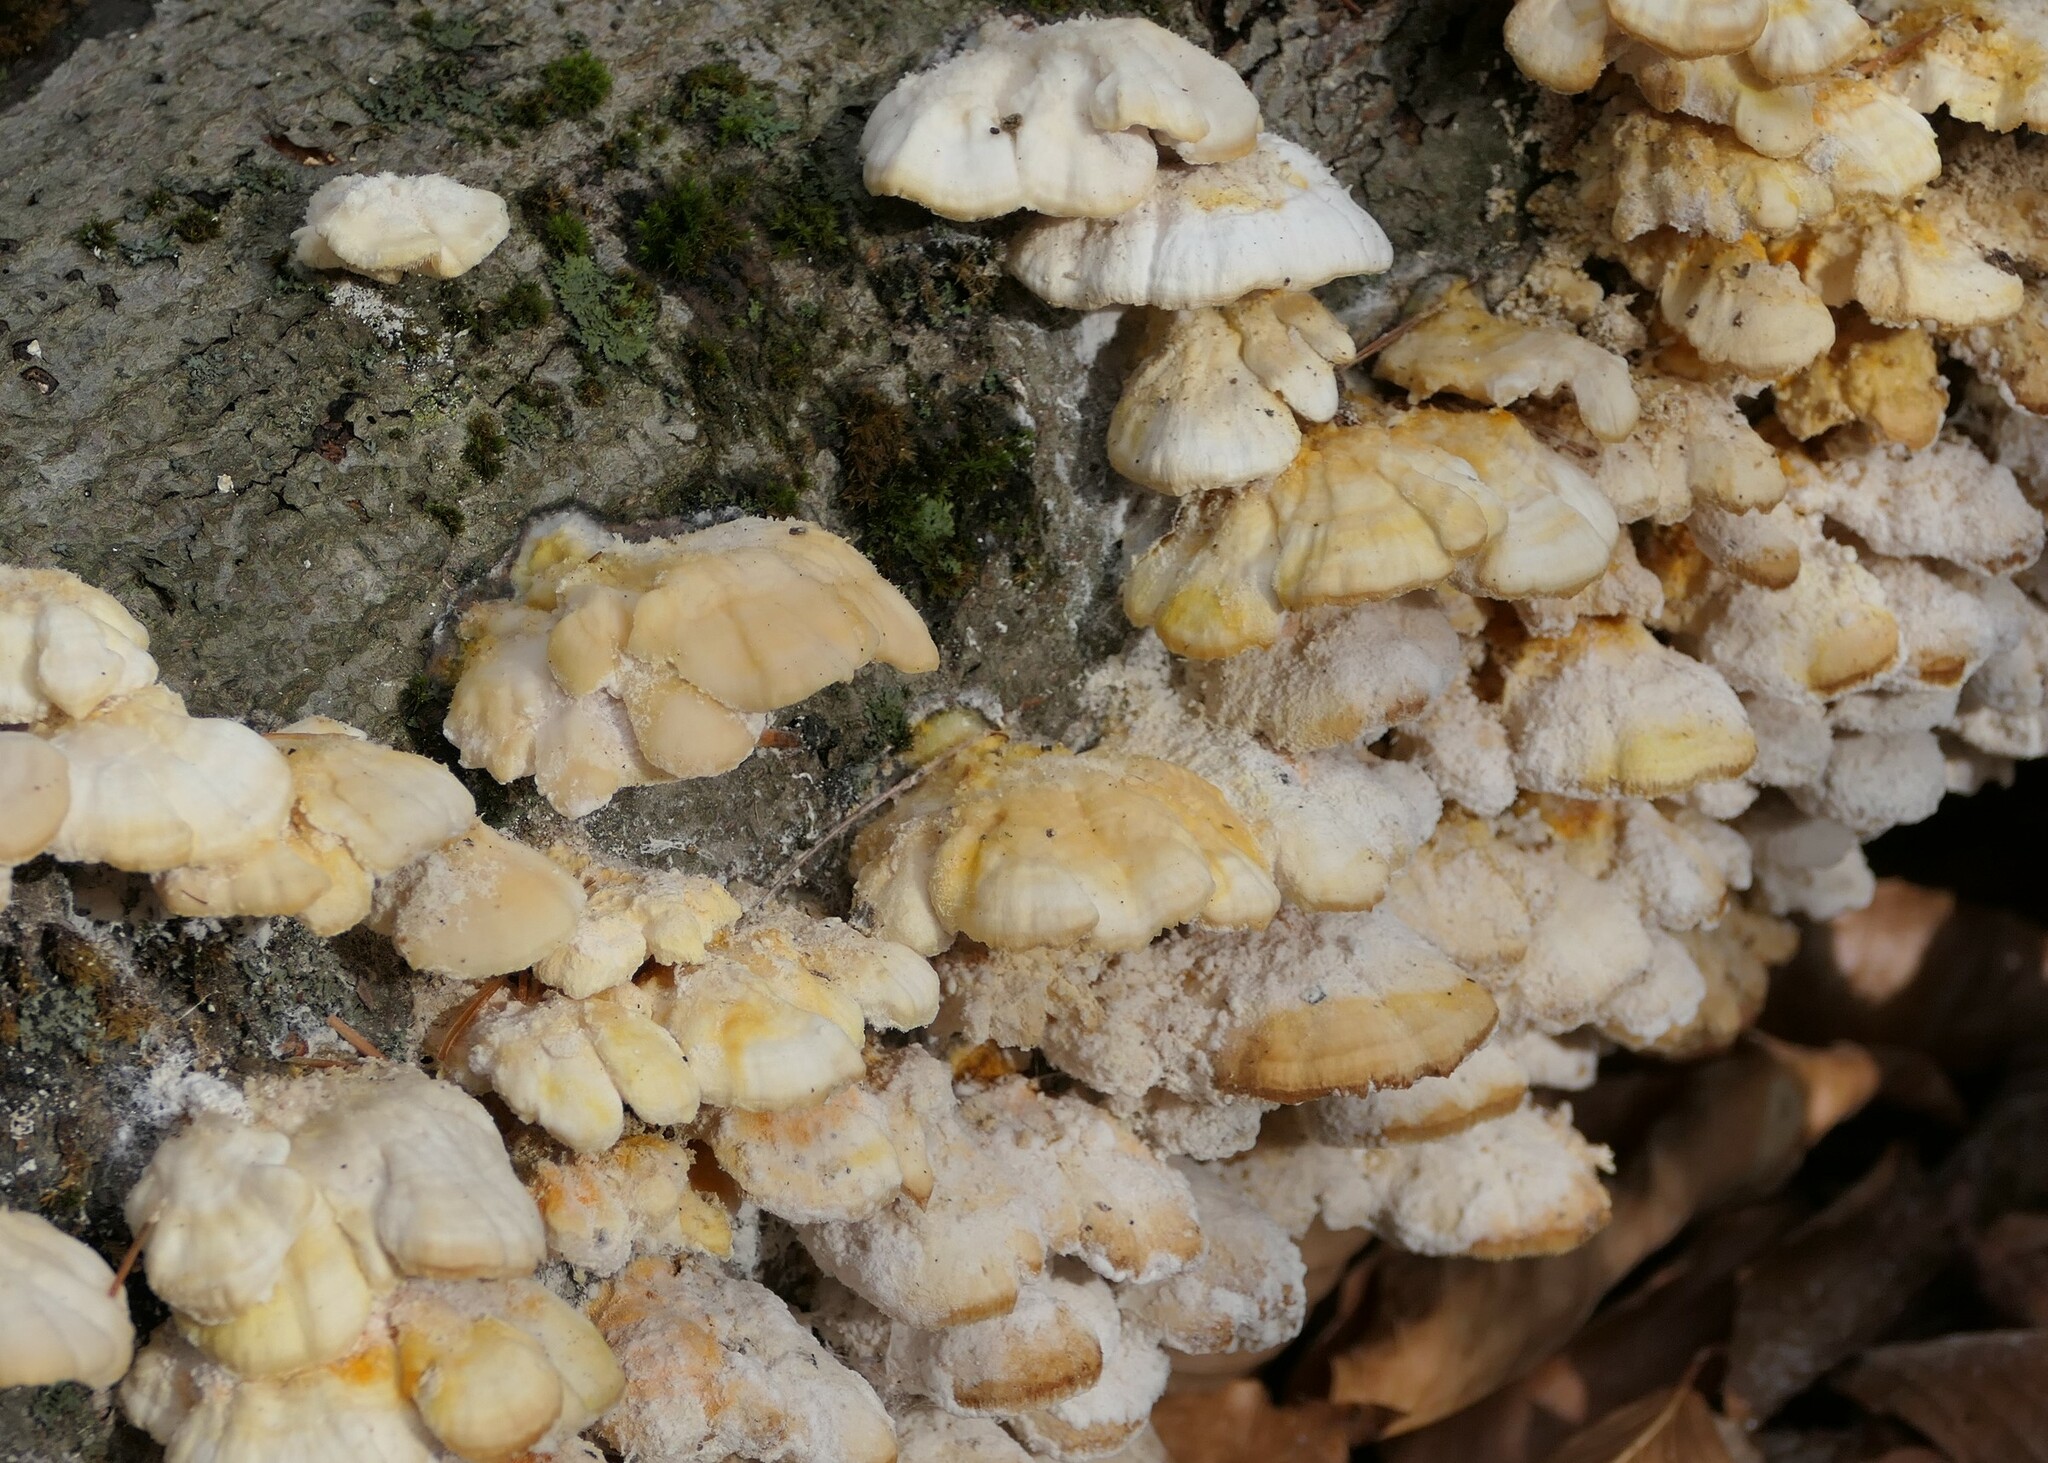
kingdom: Fungi
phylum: Basidiomycota
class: Agaricomycetes
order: Polyporales
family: Polyporaceae
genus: Trametes
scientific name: Trametes pubescens
